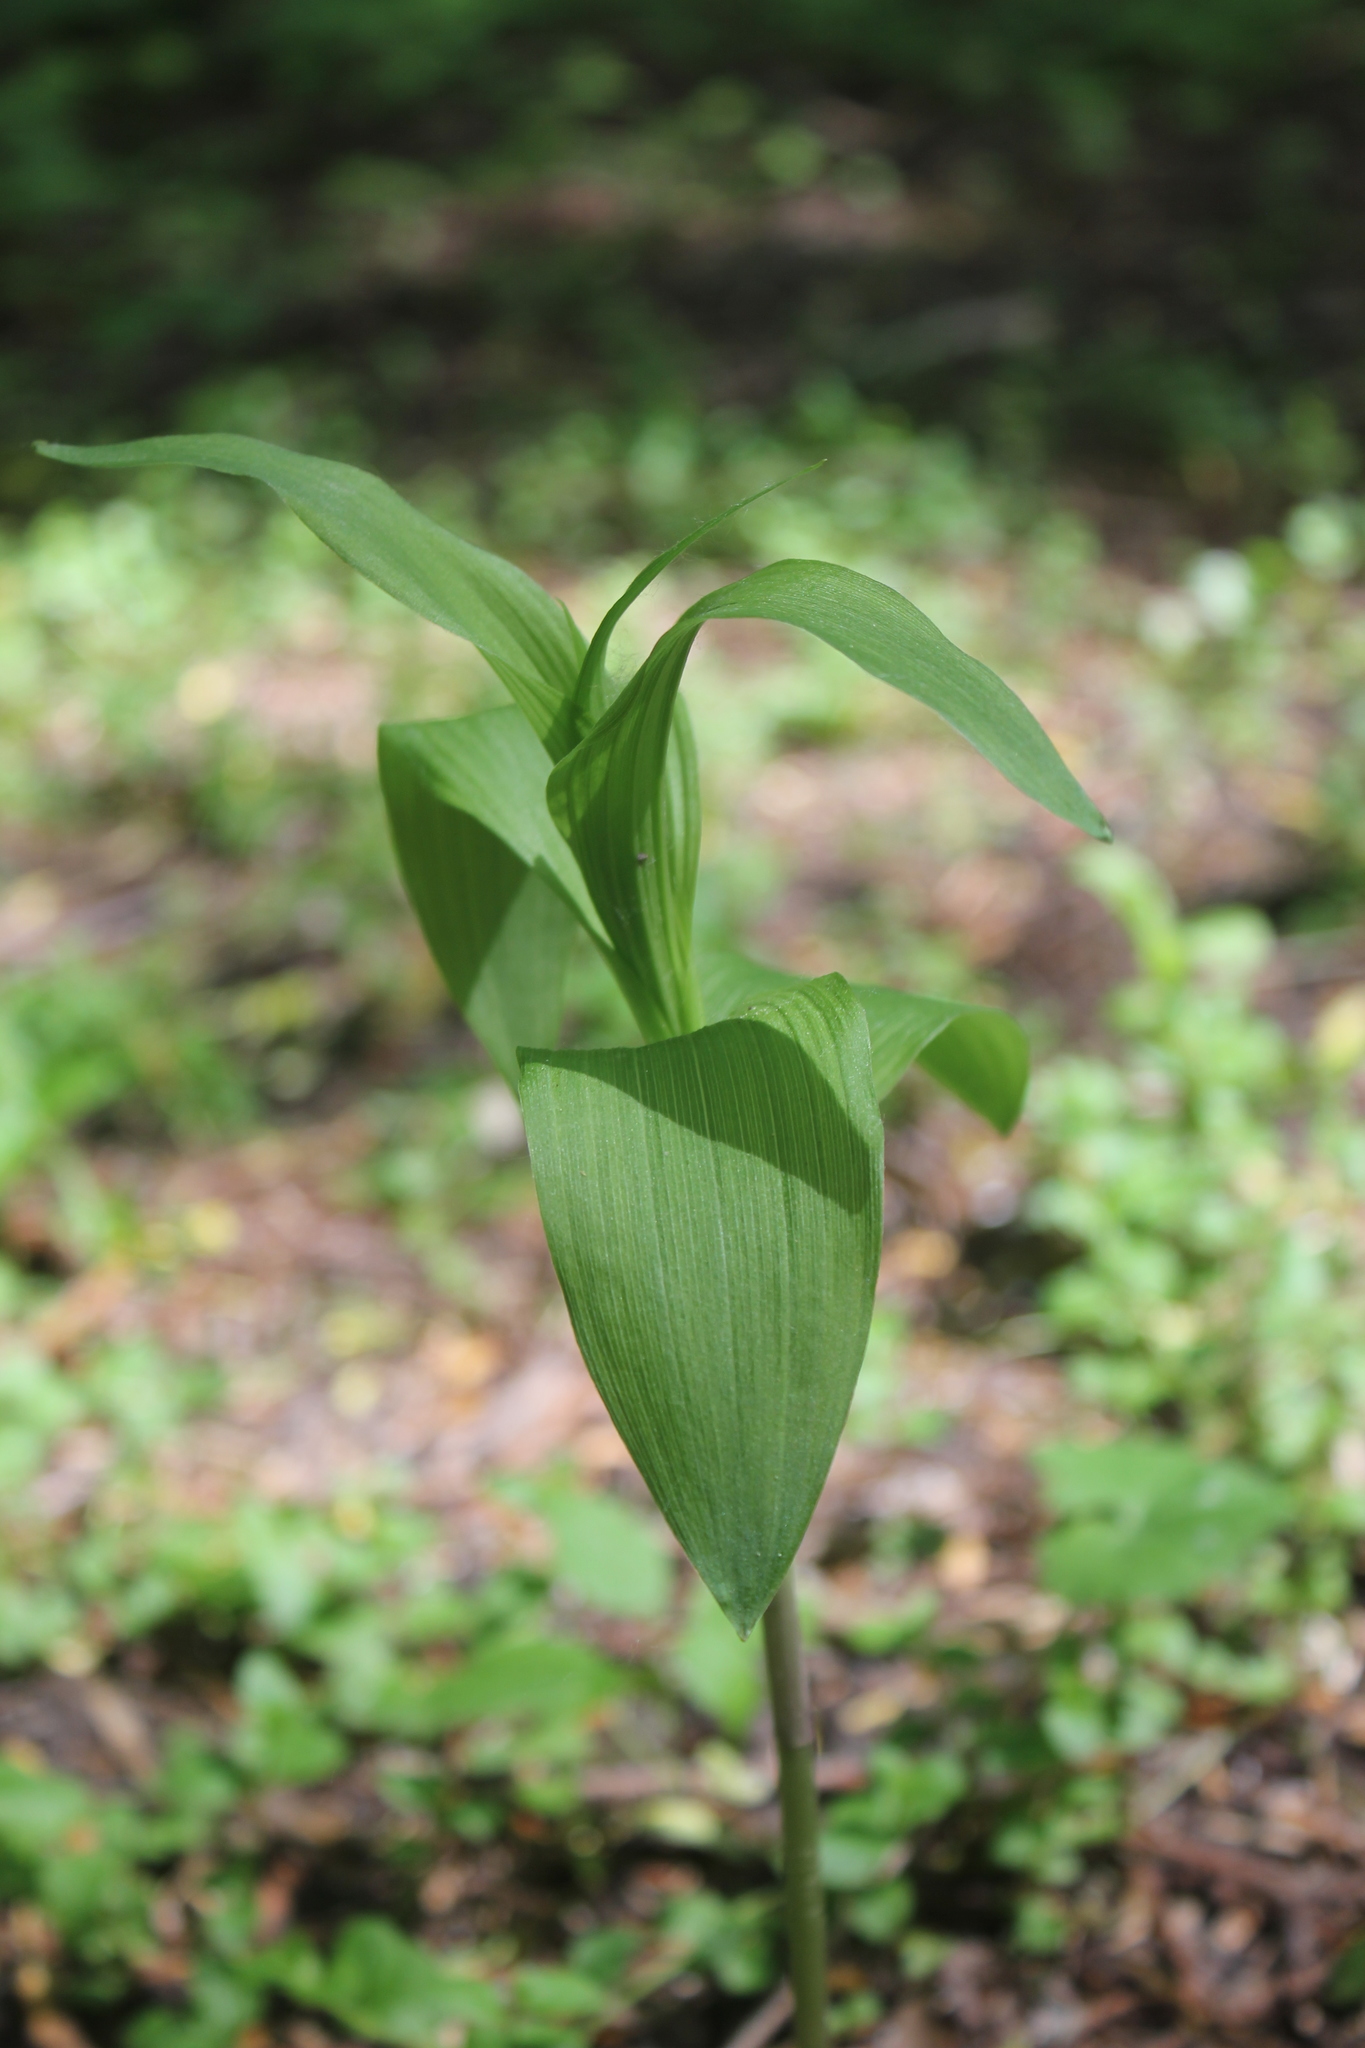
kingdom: Plantae
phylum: Tracheophyta
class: Liliopsida
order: Asparagales
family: Orchidaceae
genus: Epipactis
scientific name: Epipactis helleborine
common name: Broad-leaved helleborine
